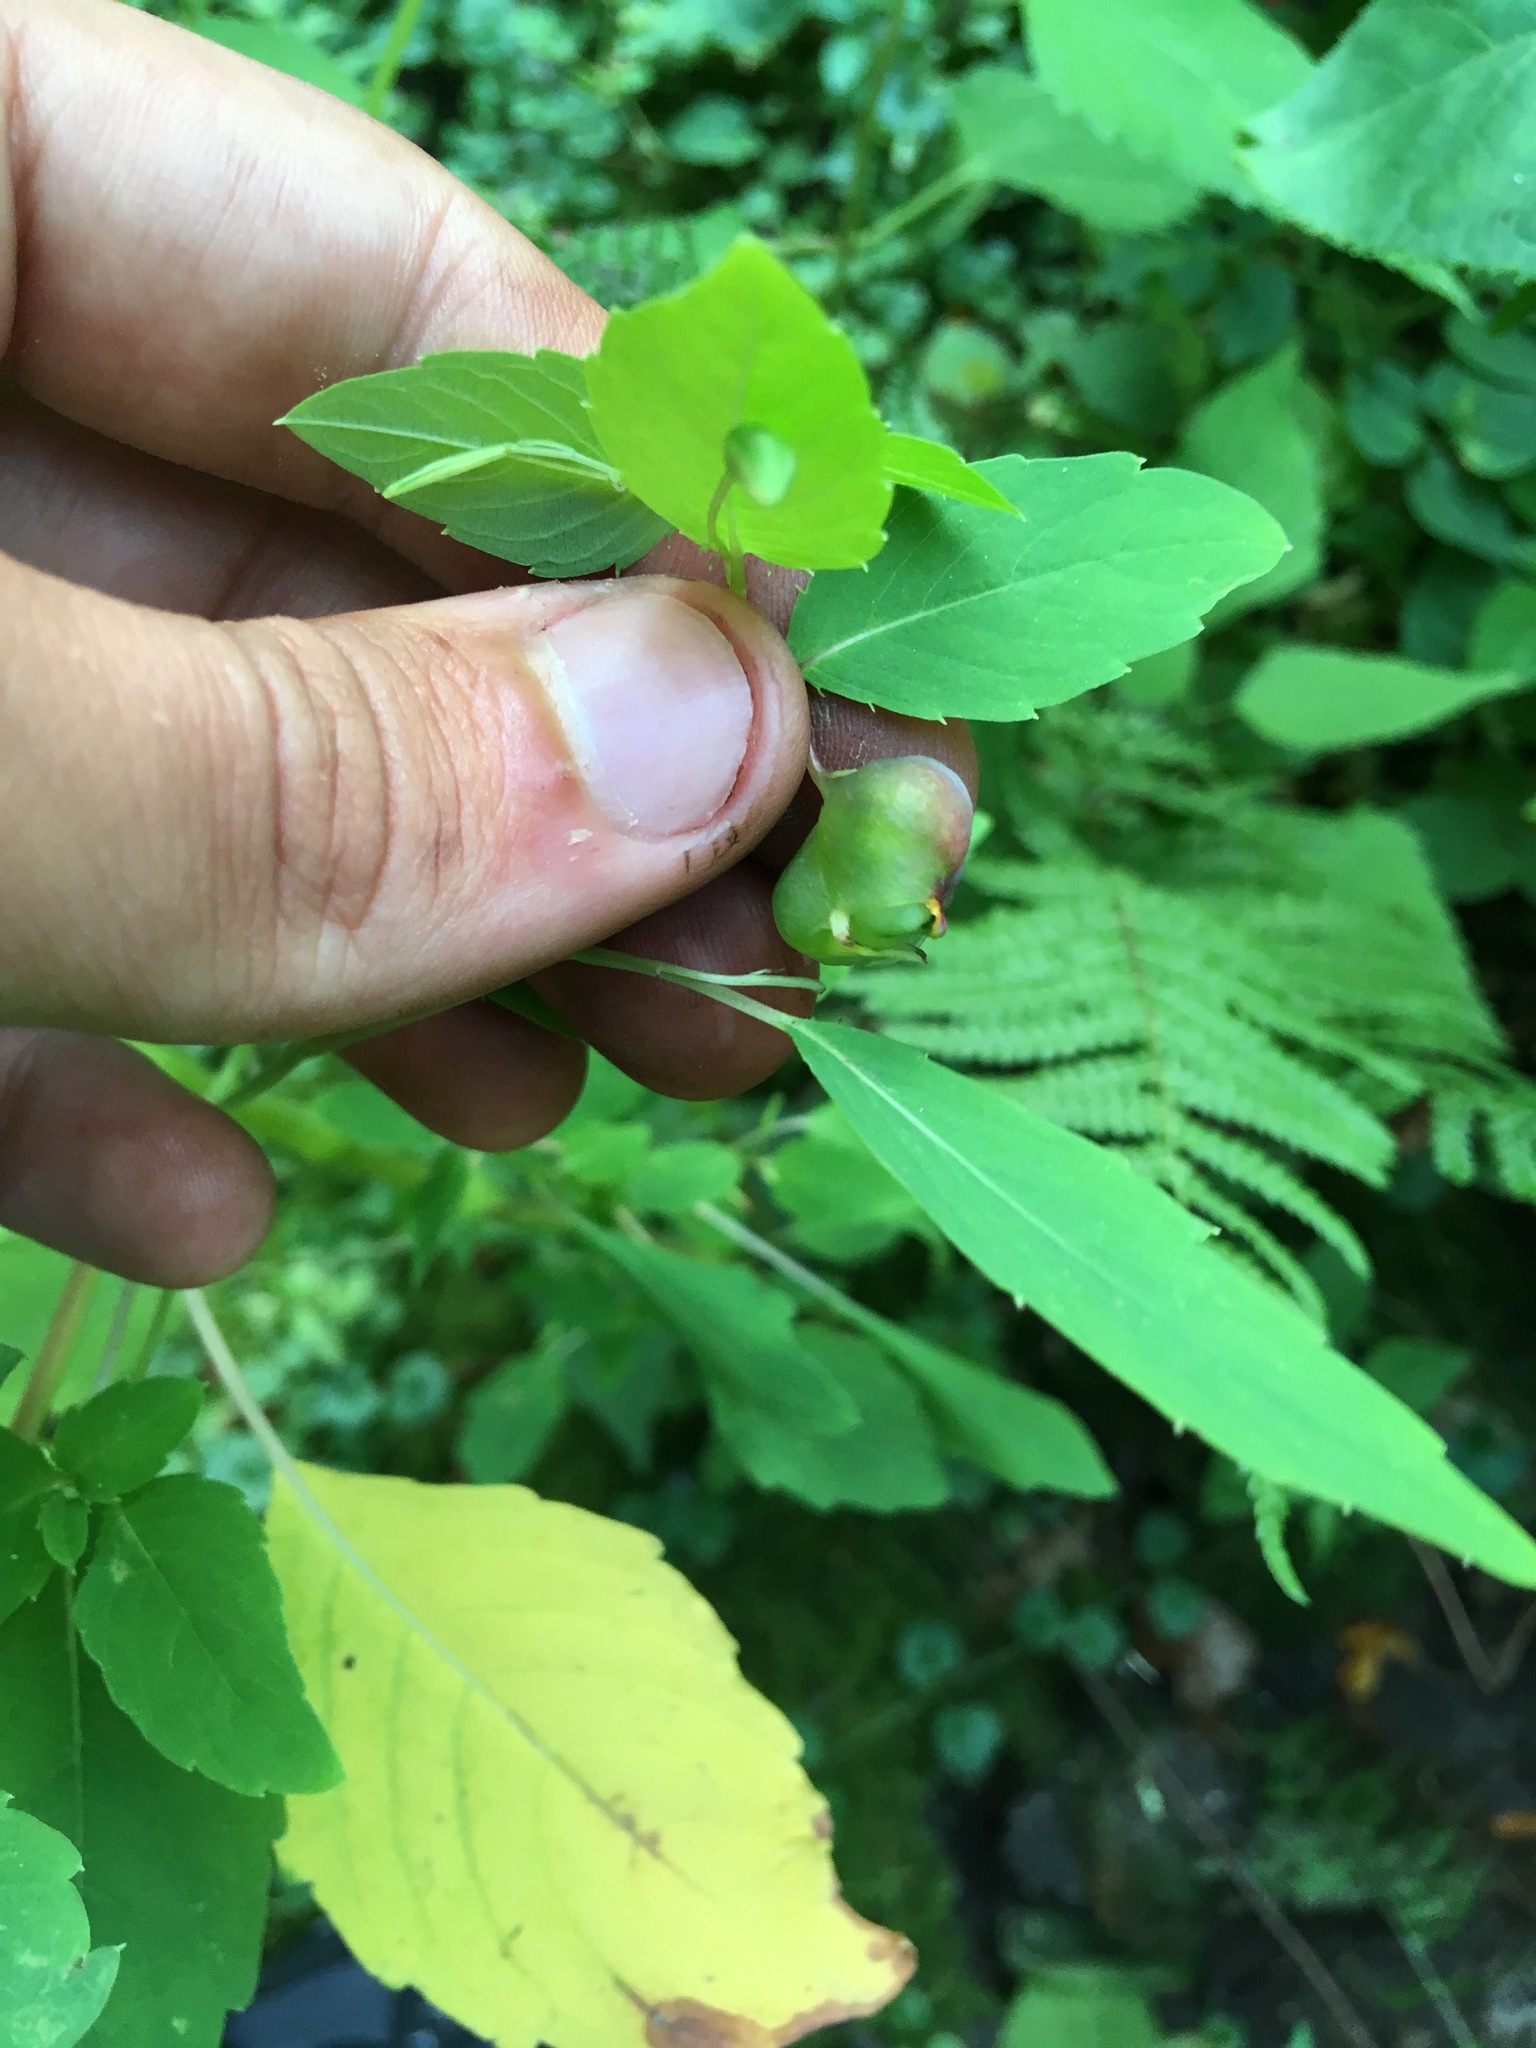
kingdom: Animalia
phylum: Arthropoda
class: Insecta
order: Diptera
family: Cecidomyiidae
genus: Schizomyia
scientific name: Schizomyia impatientis
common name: Jewelweed gall midge
